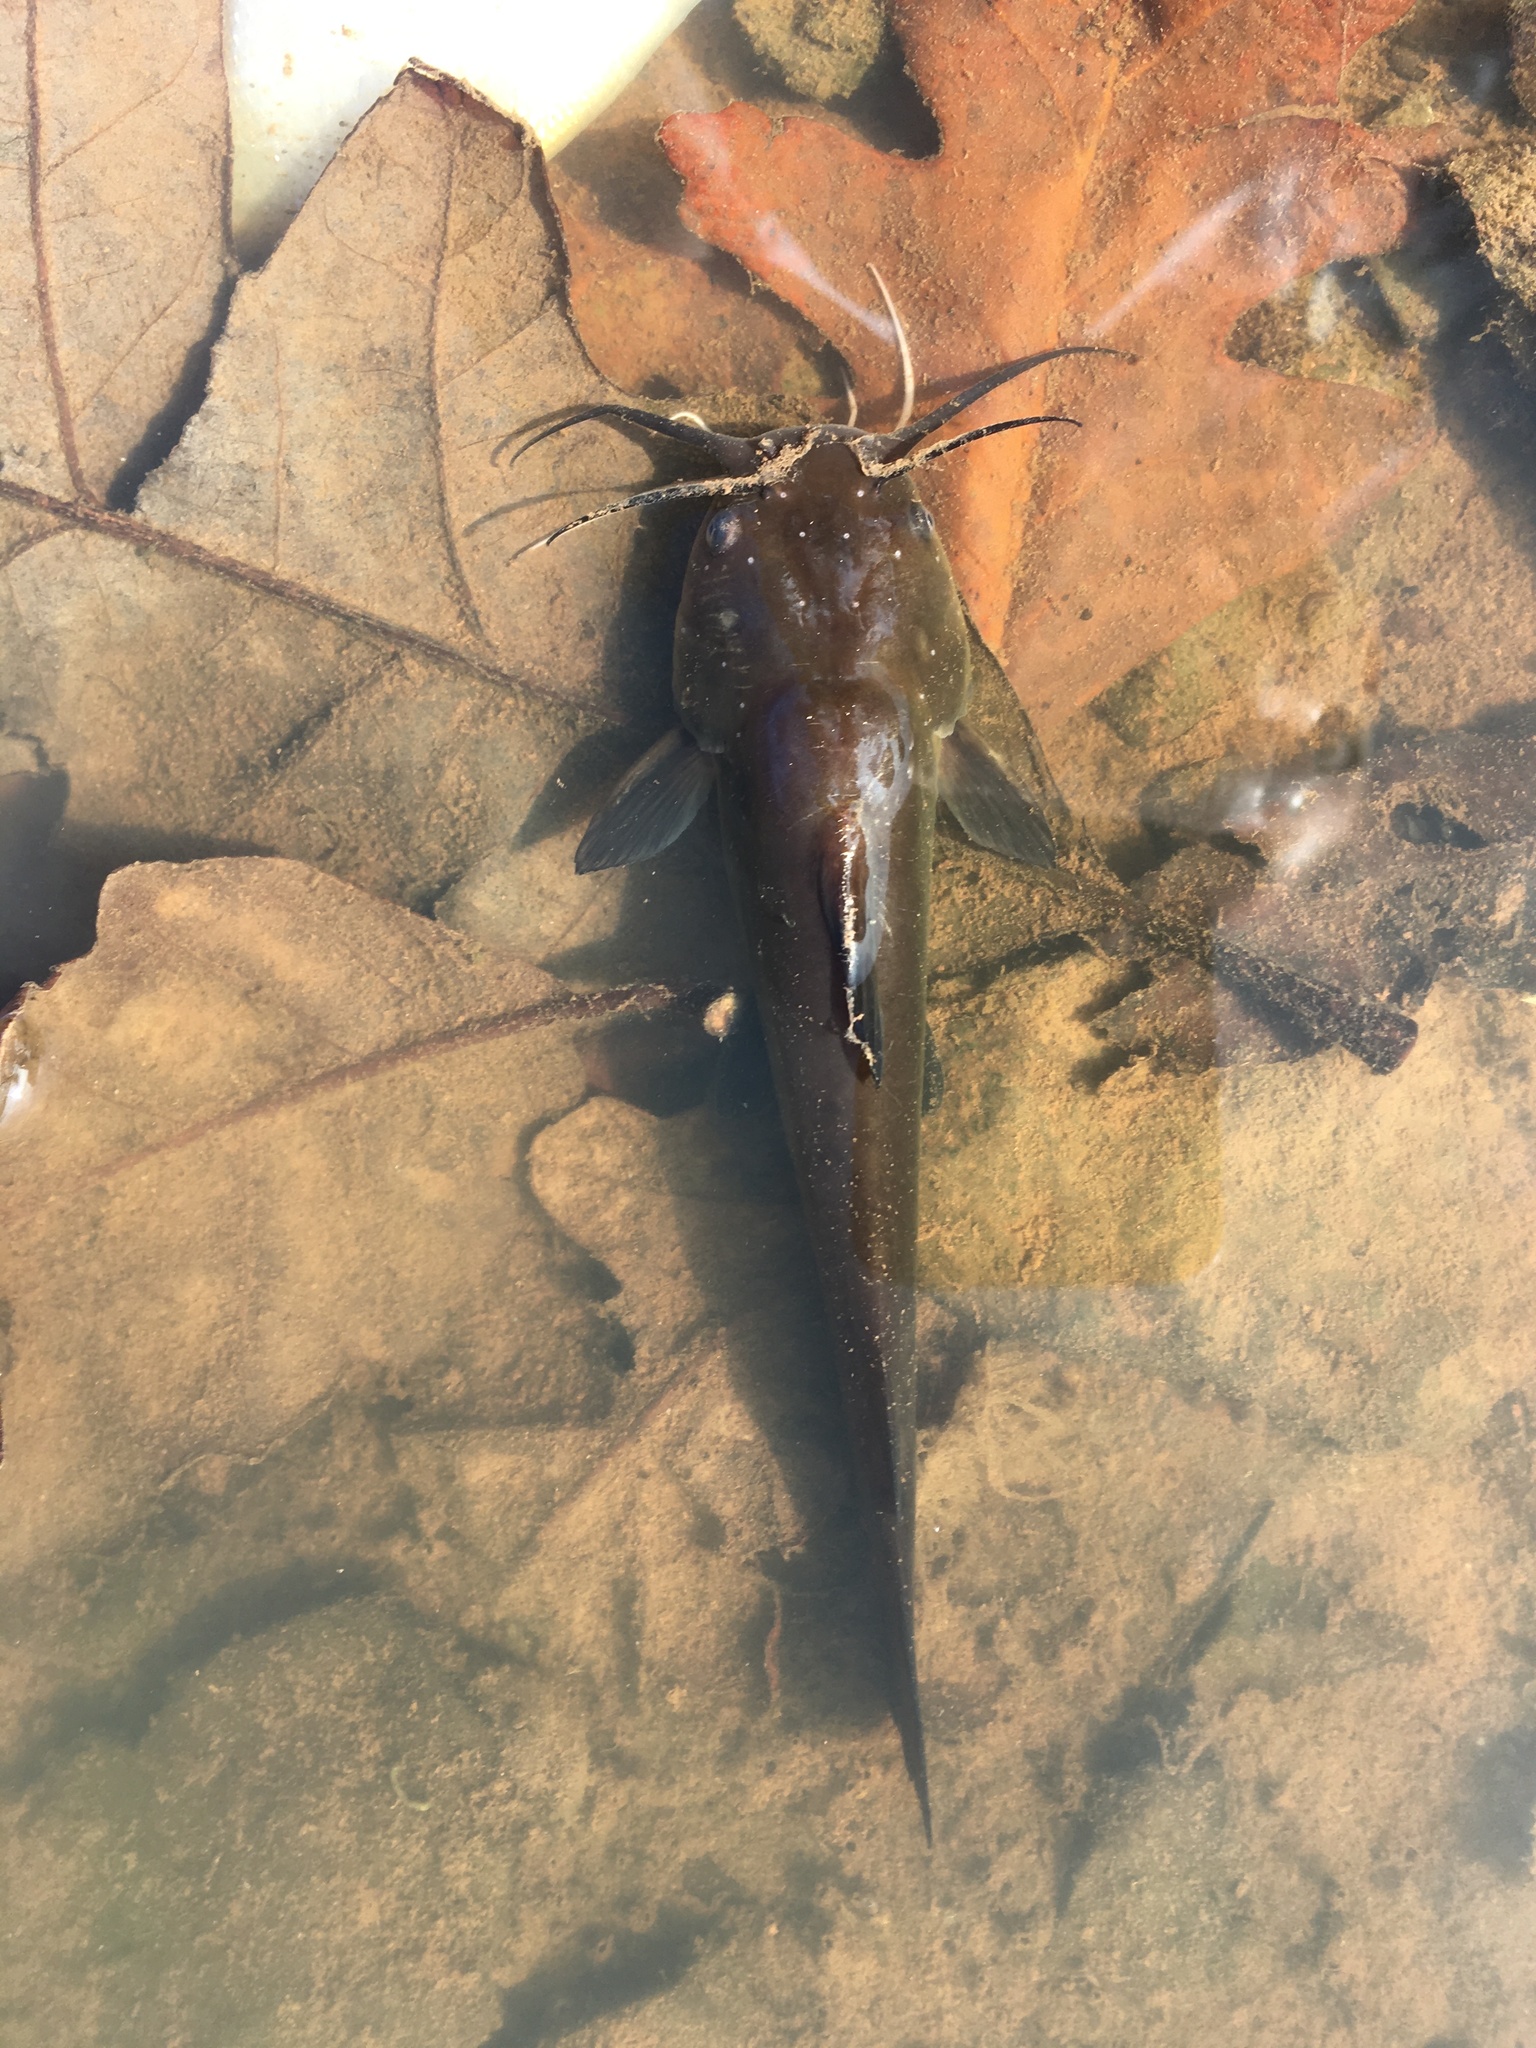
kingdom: Animalia
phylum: Chordata
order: Siluriformes
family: Ictaluridae
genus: Ameiurus
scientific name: Ameiurus
